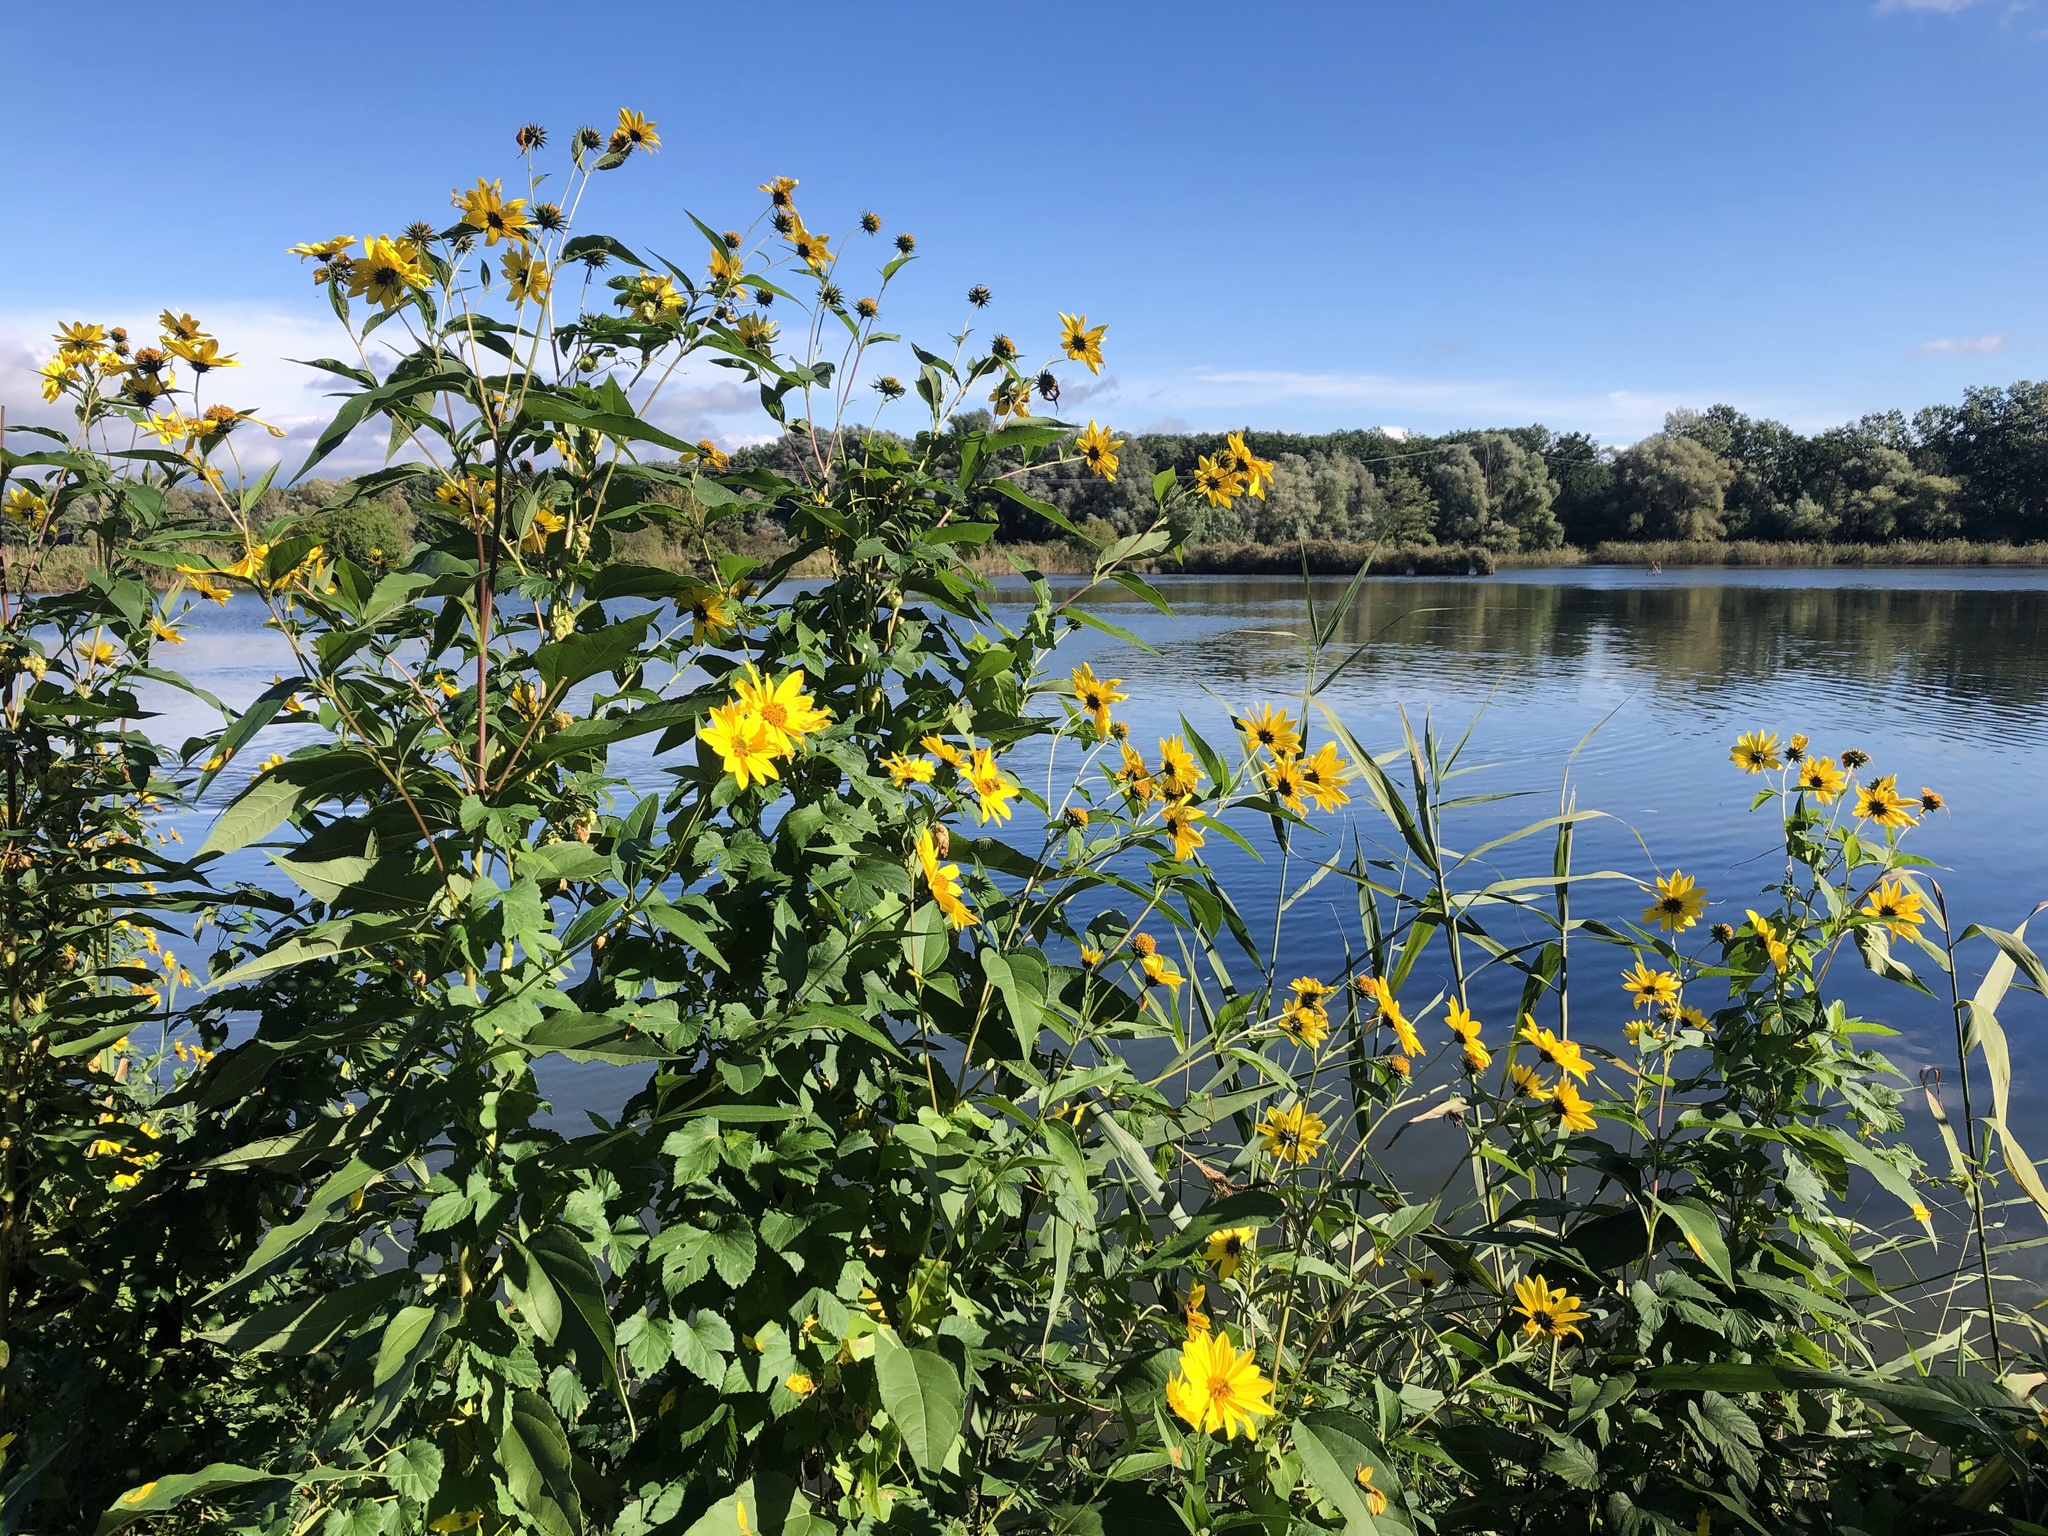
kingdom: Plantae
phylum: Tracheophyta
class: Magnoliopsida
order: Asterales
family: Asteraceae
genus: Helianthus
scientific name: Helianthus tuberosus
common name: Jerusalem artichoke
